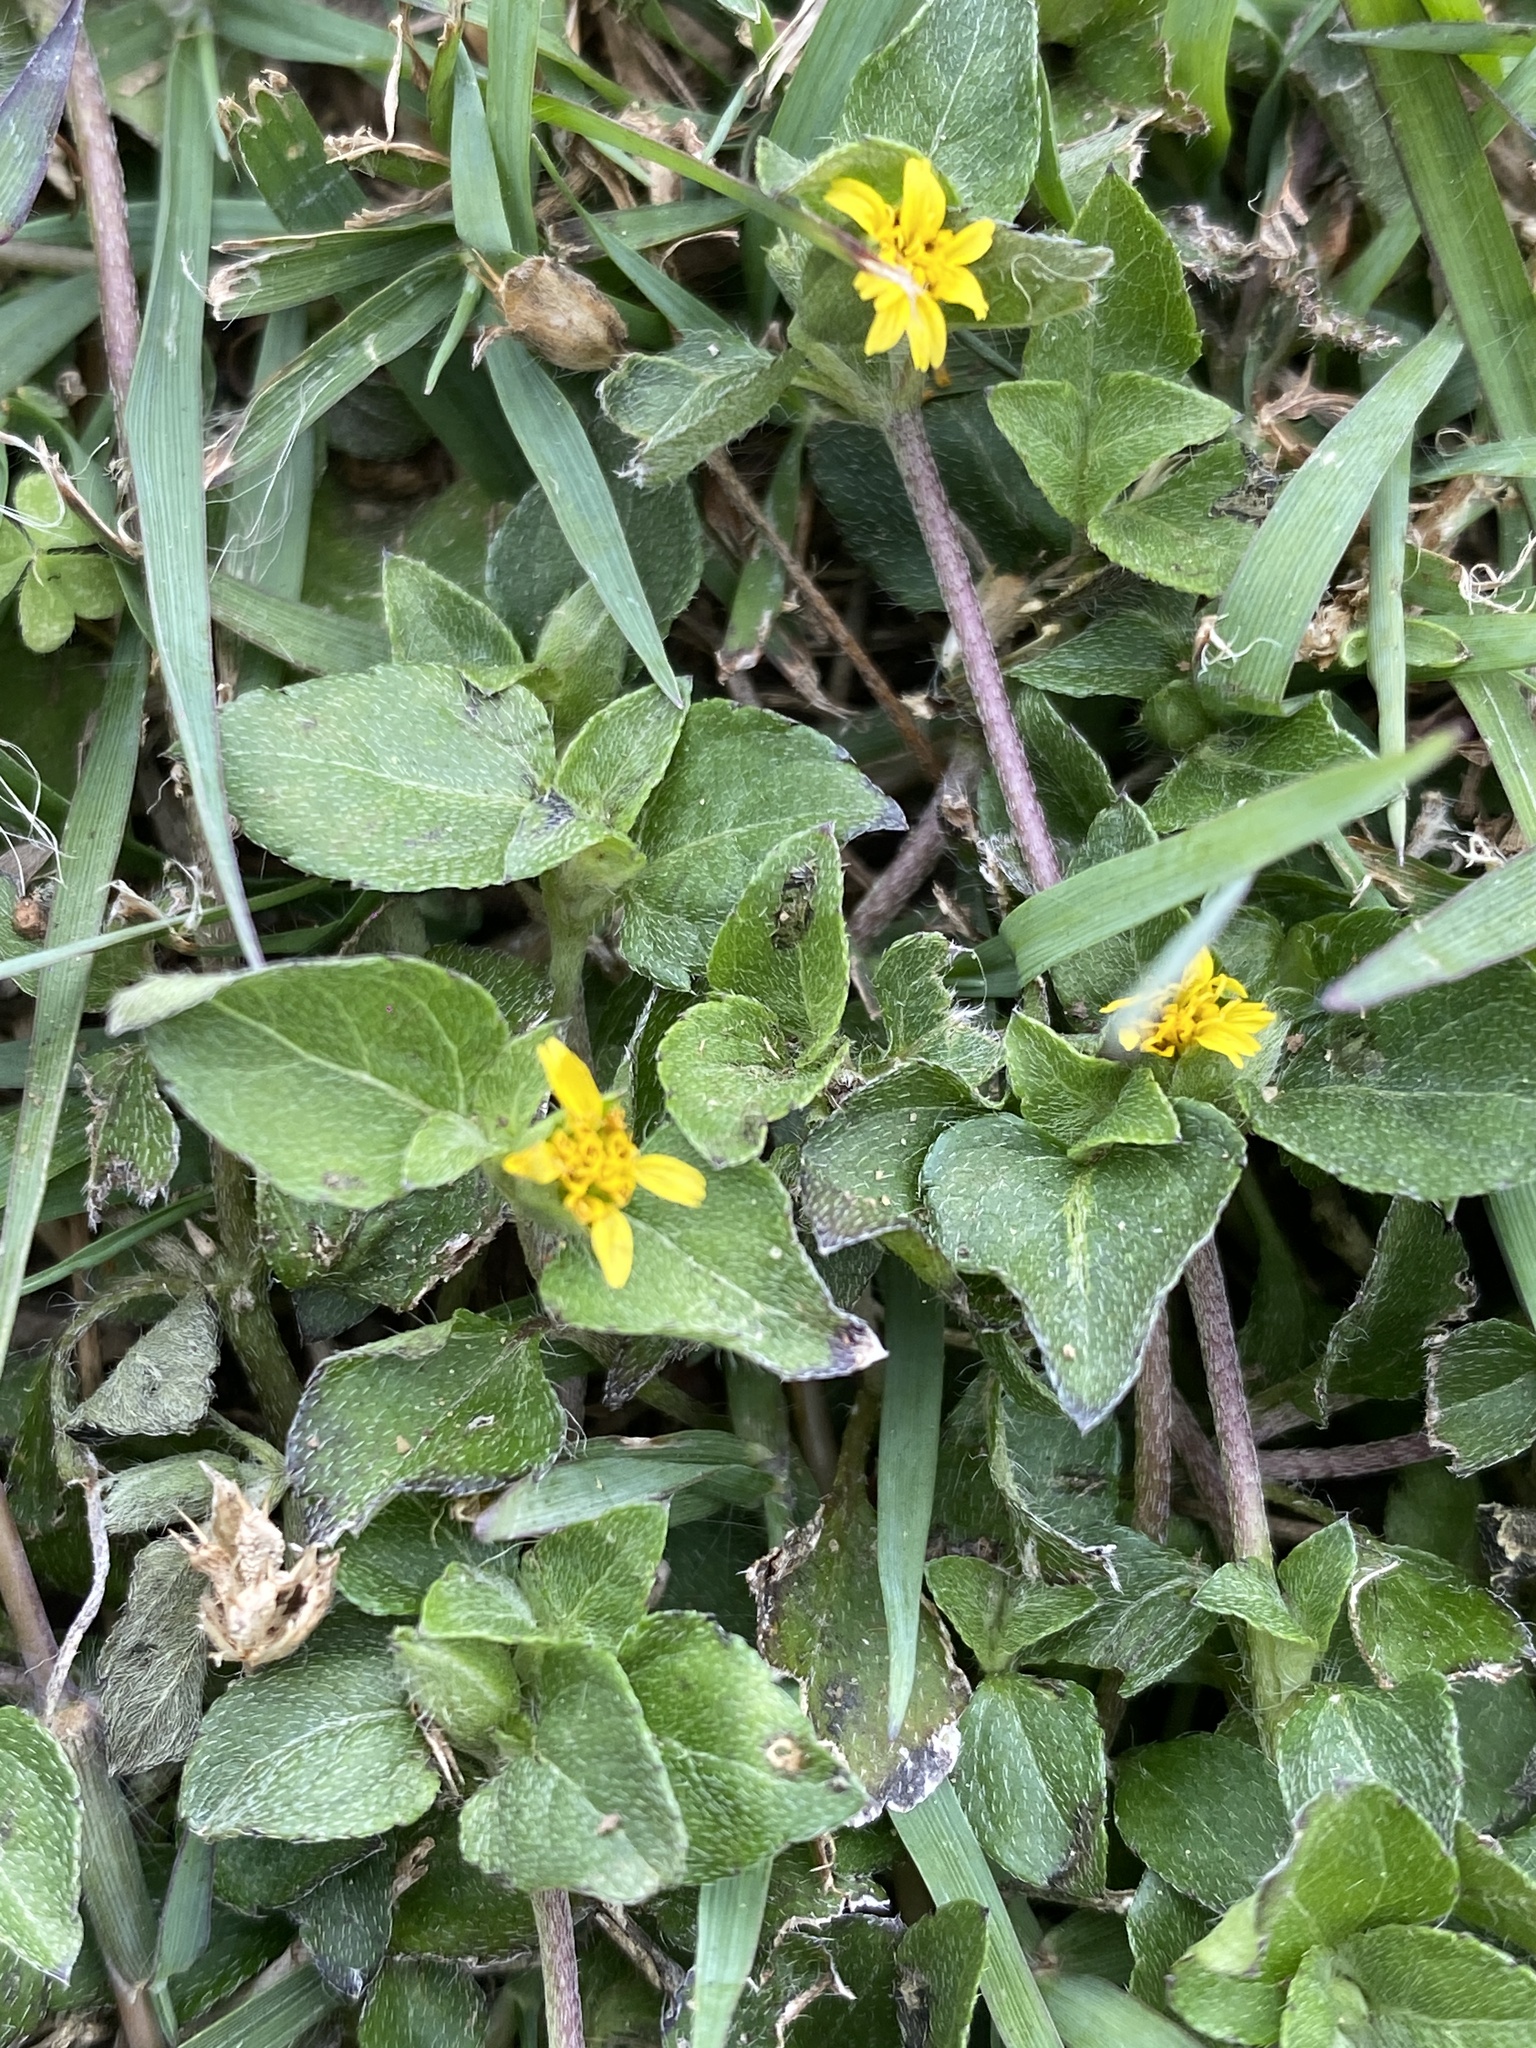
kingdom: Plantae
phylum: Tracheophyta
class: Magnoliopsida
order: Asterales
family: Asteraceae
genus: Calyptocarpus
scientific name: Calyptocarpus vialis
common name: Straggler daisy
